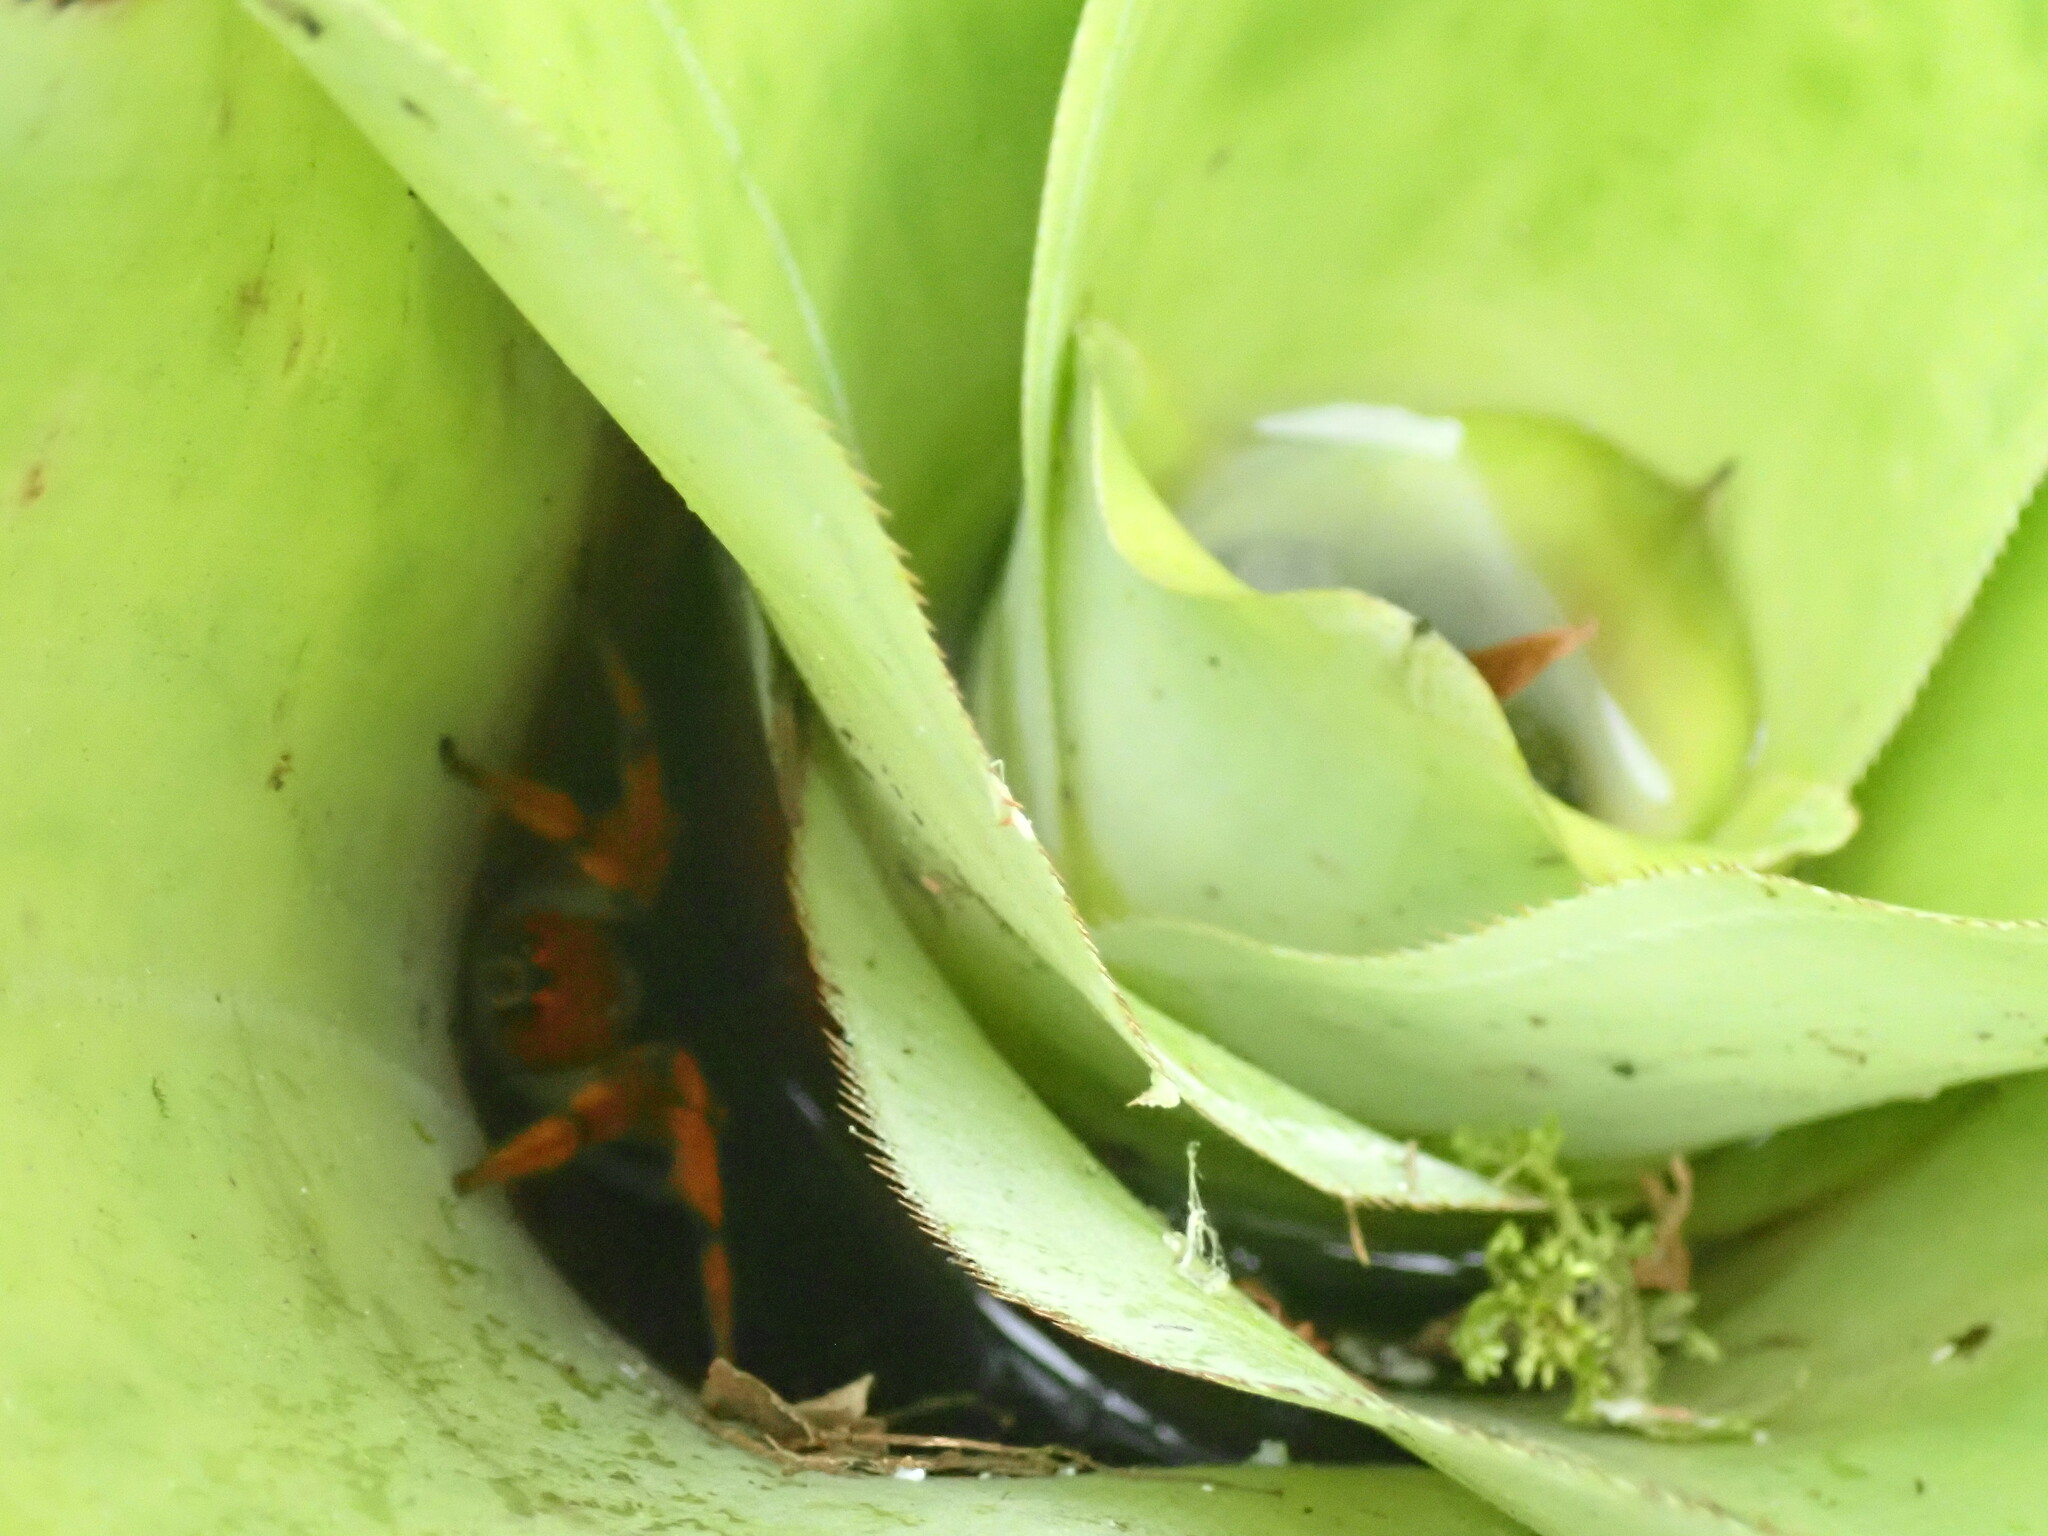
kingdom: Animalia
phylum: Arthropoda
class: Arachnida
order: Araneae
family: Trechaleidae
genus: Cupiennius
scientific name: Cupiennius getazi
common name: Wandering spiders
